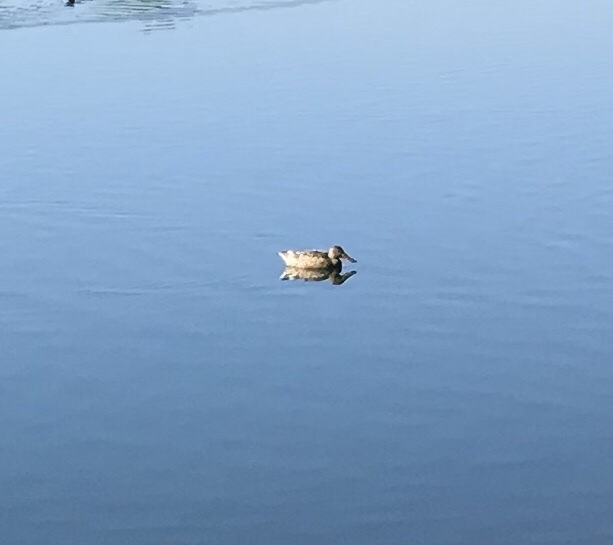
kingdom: Animalia
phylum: Chordata
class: Aves
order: Anseriformes
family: Anatidae
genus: Spatula
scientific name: Spatula clypeata
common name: Northern shoveler
